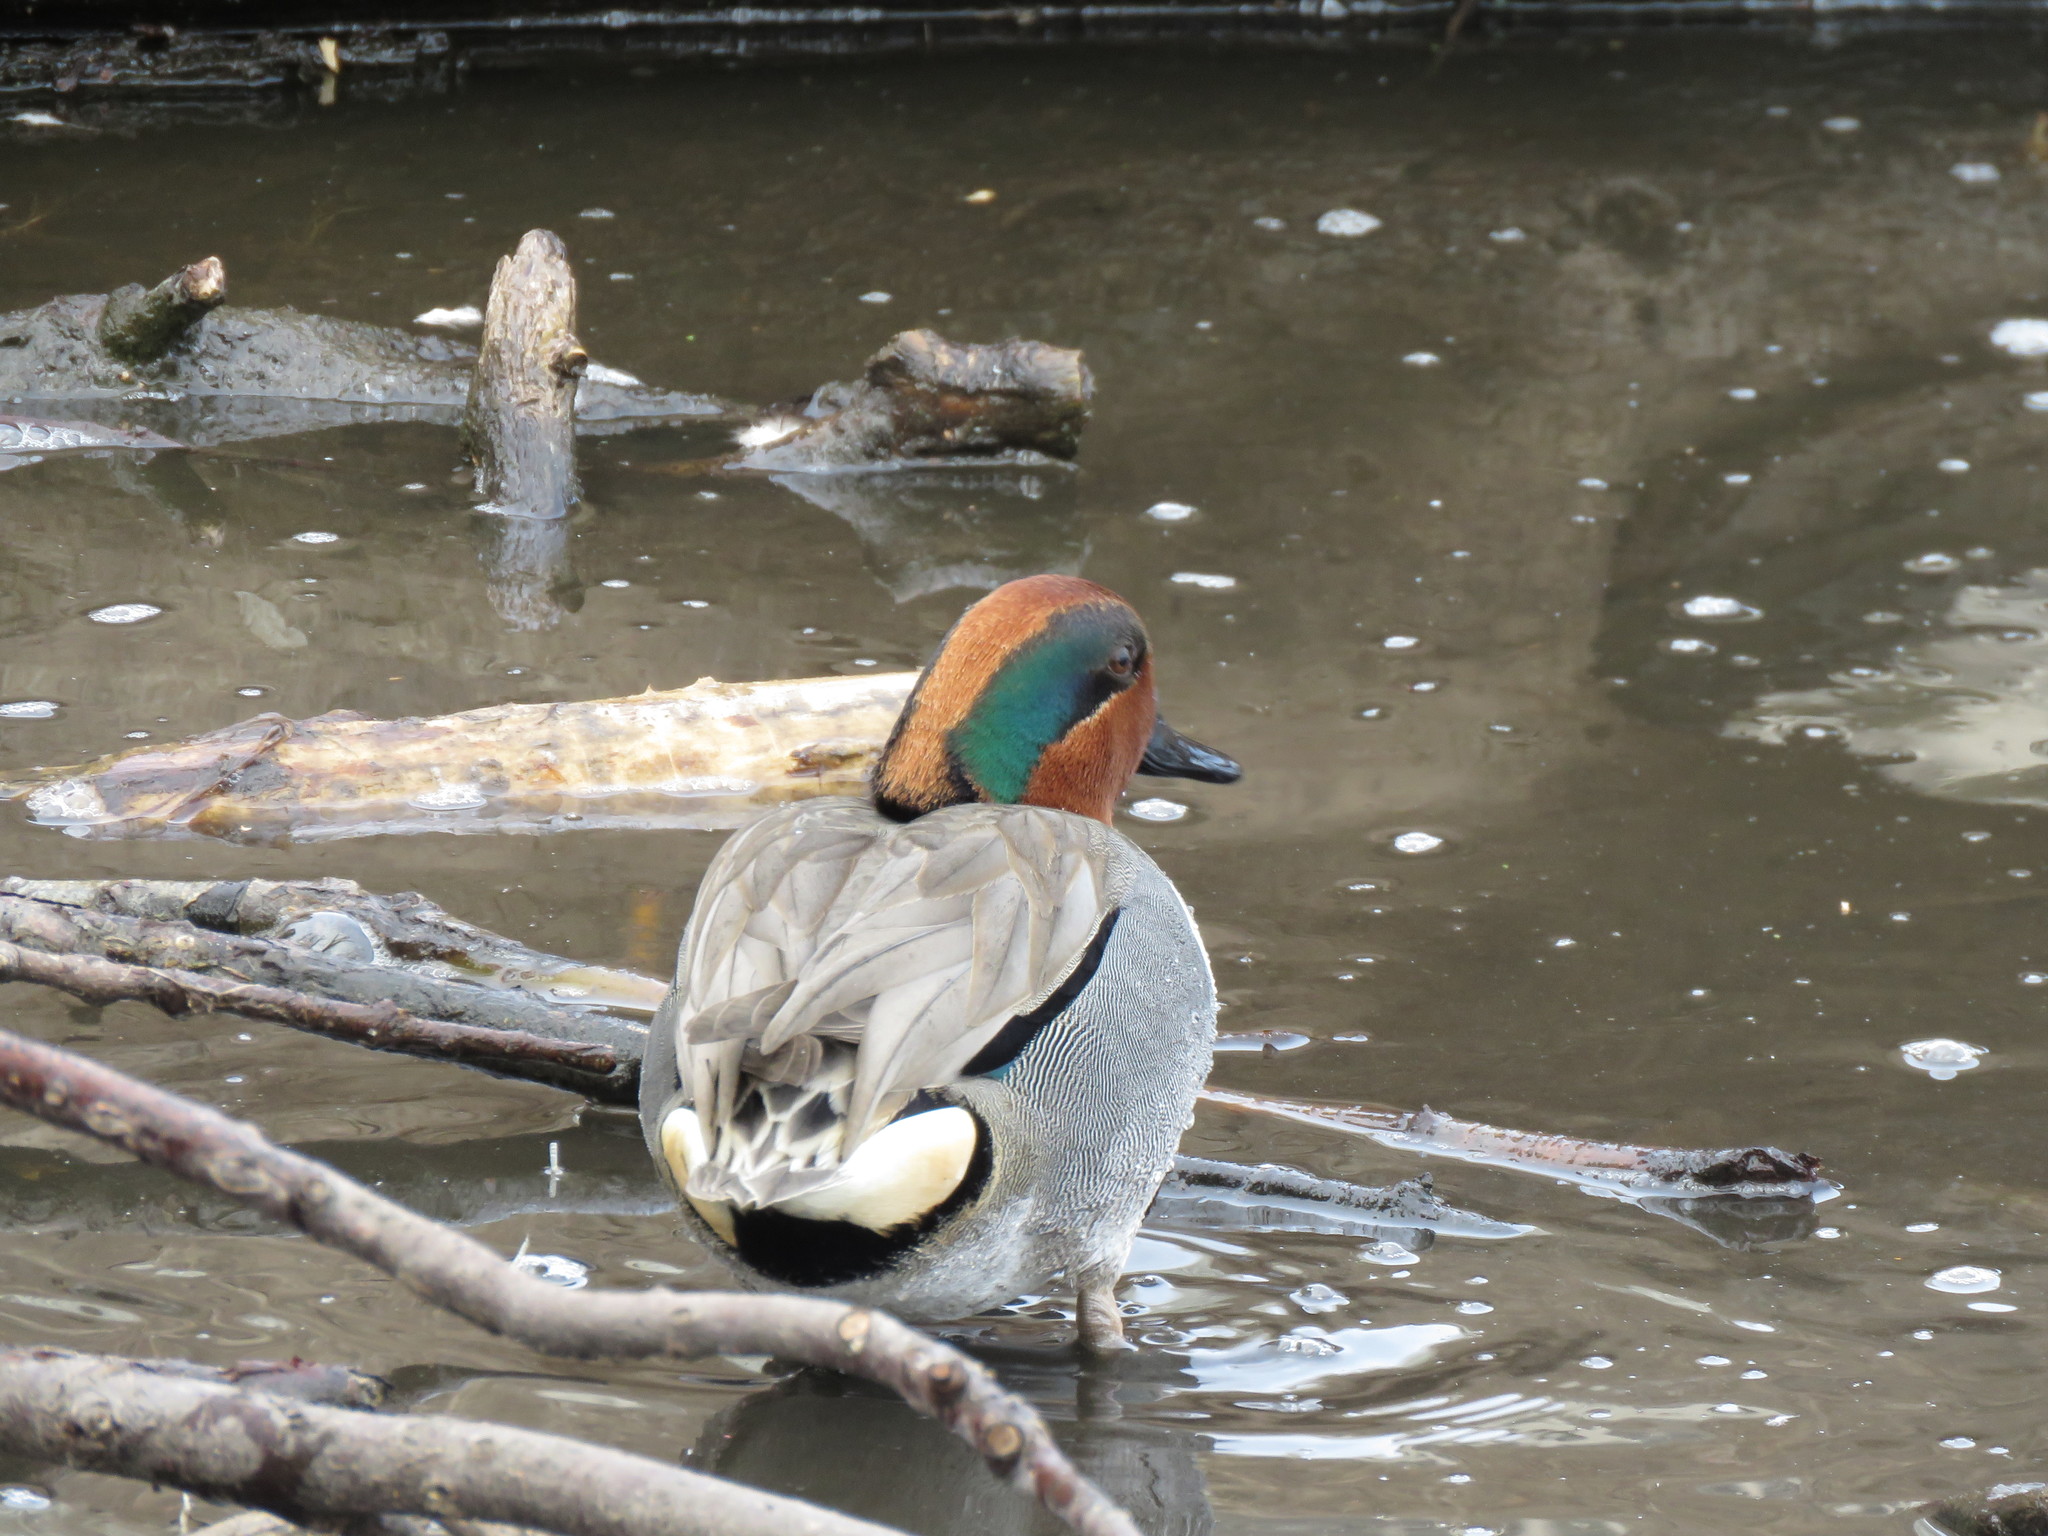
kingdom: Animalia
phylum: Chordata
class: Aves
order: Anseriformes
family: Anatidae
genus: Anas
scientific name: Anas crecca
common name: Eurasian teal
